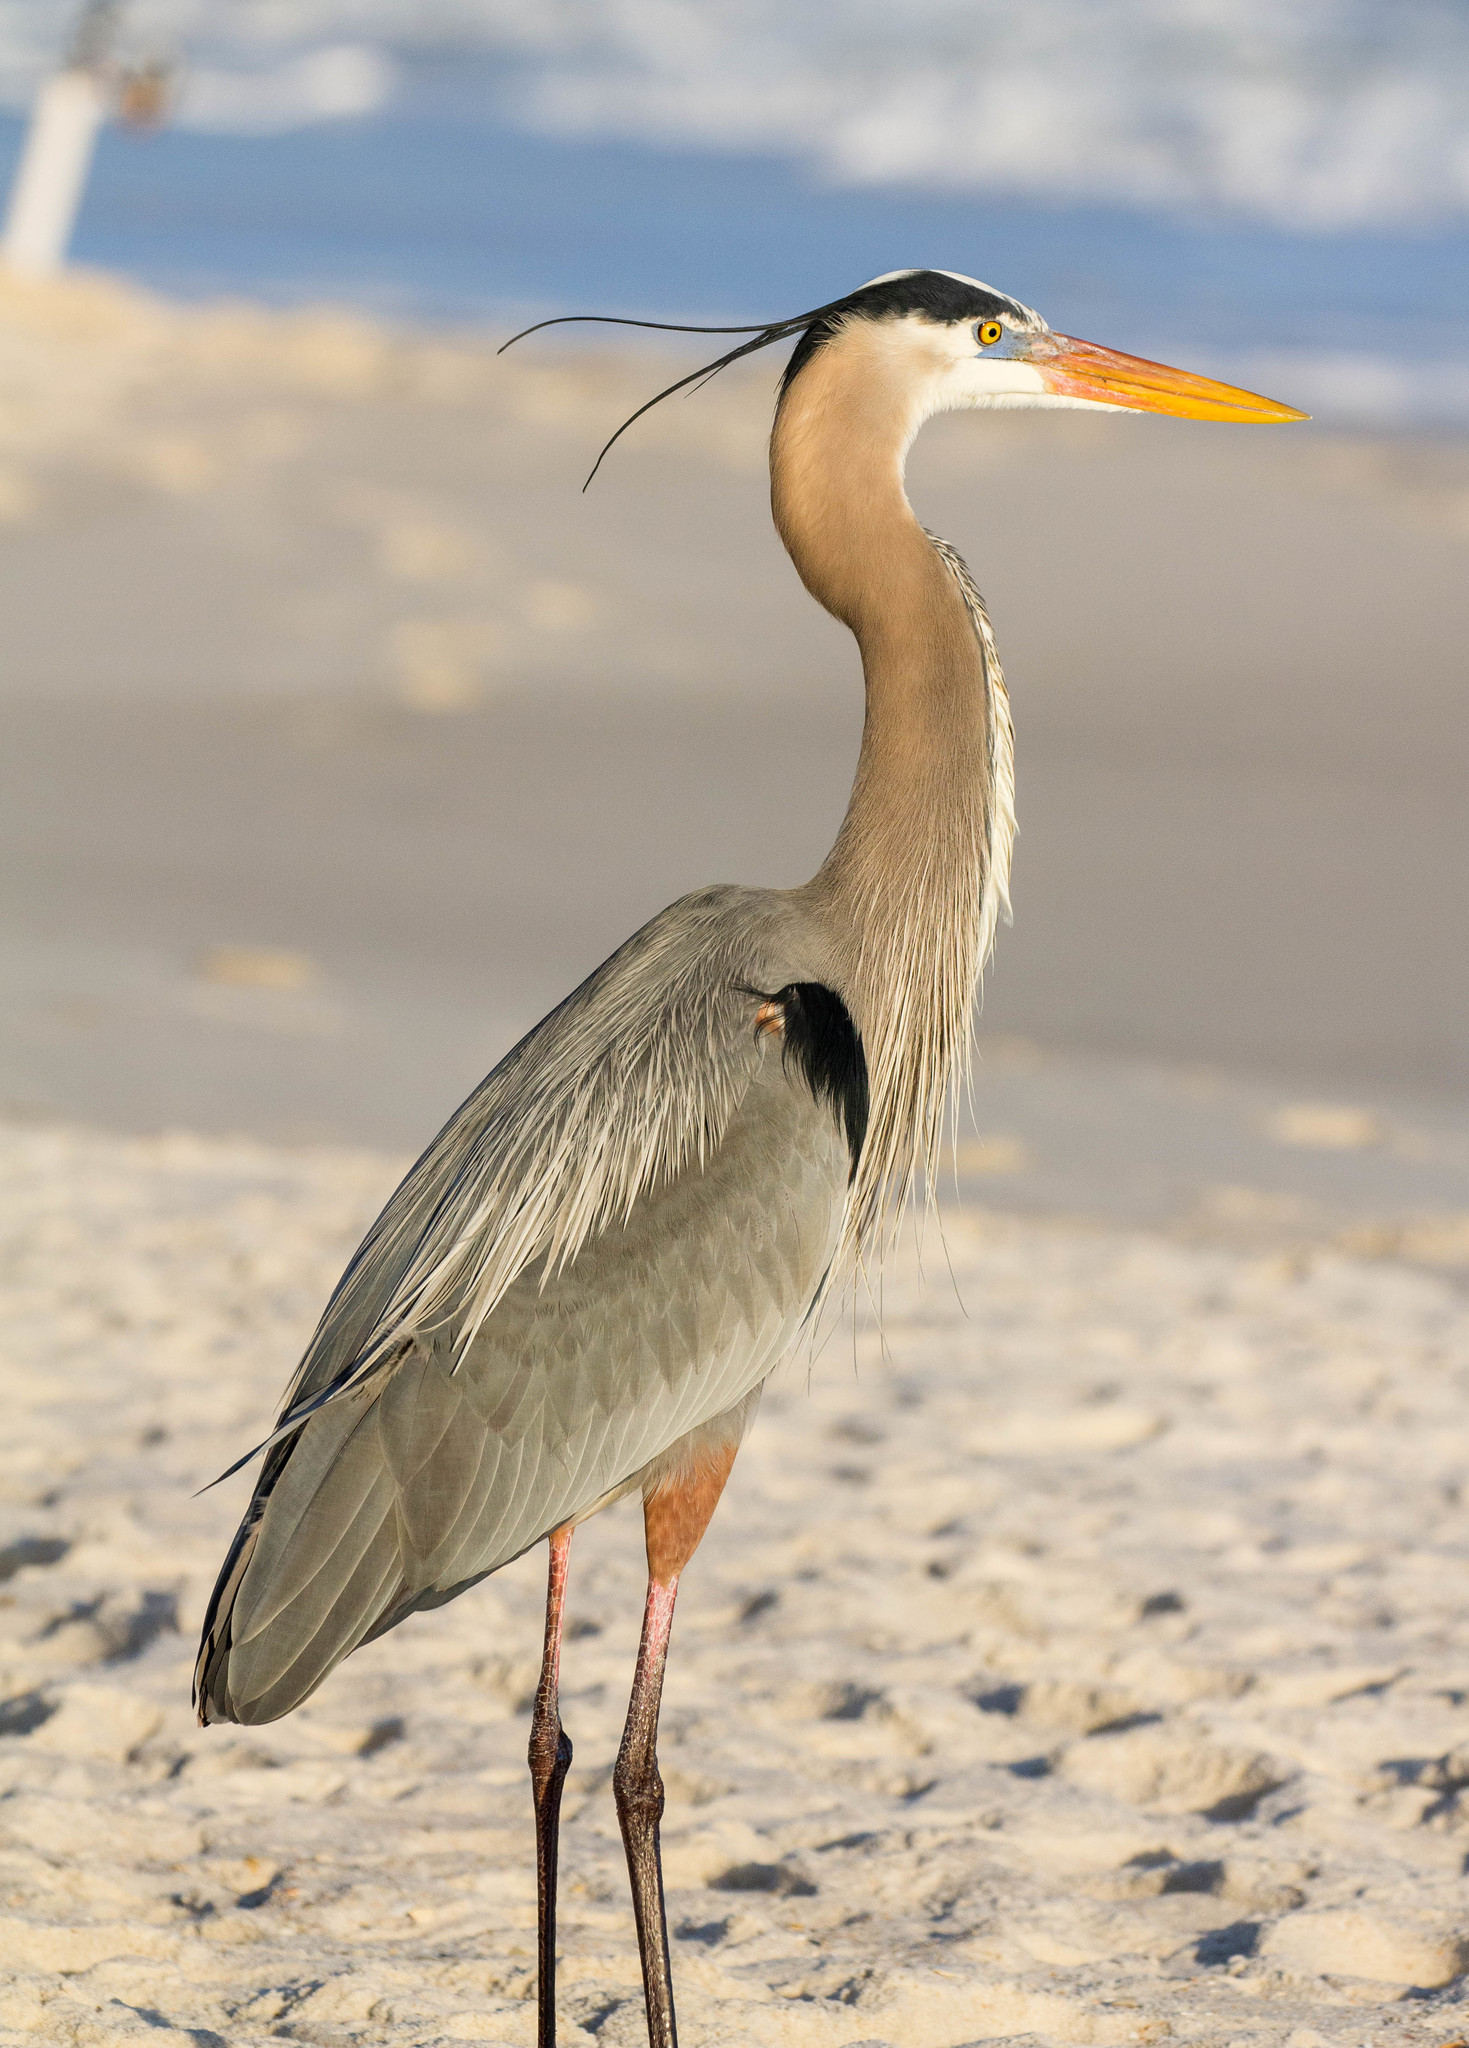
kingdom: Animalia
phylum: Chordata
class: Aves
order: Pelecaniformes
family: Ardeidae
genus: Ardea
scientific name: Ardea herodias
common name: Great blue heron
